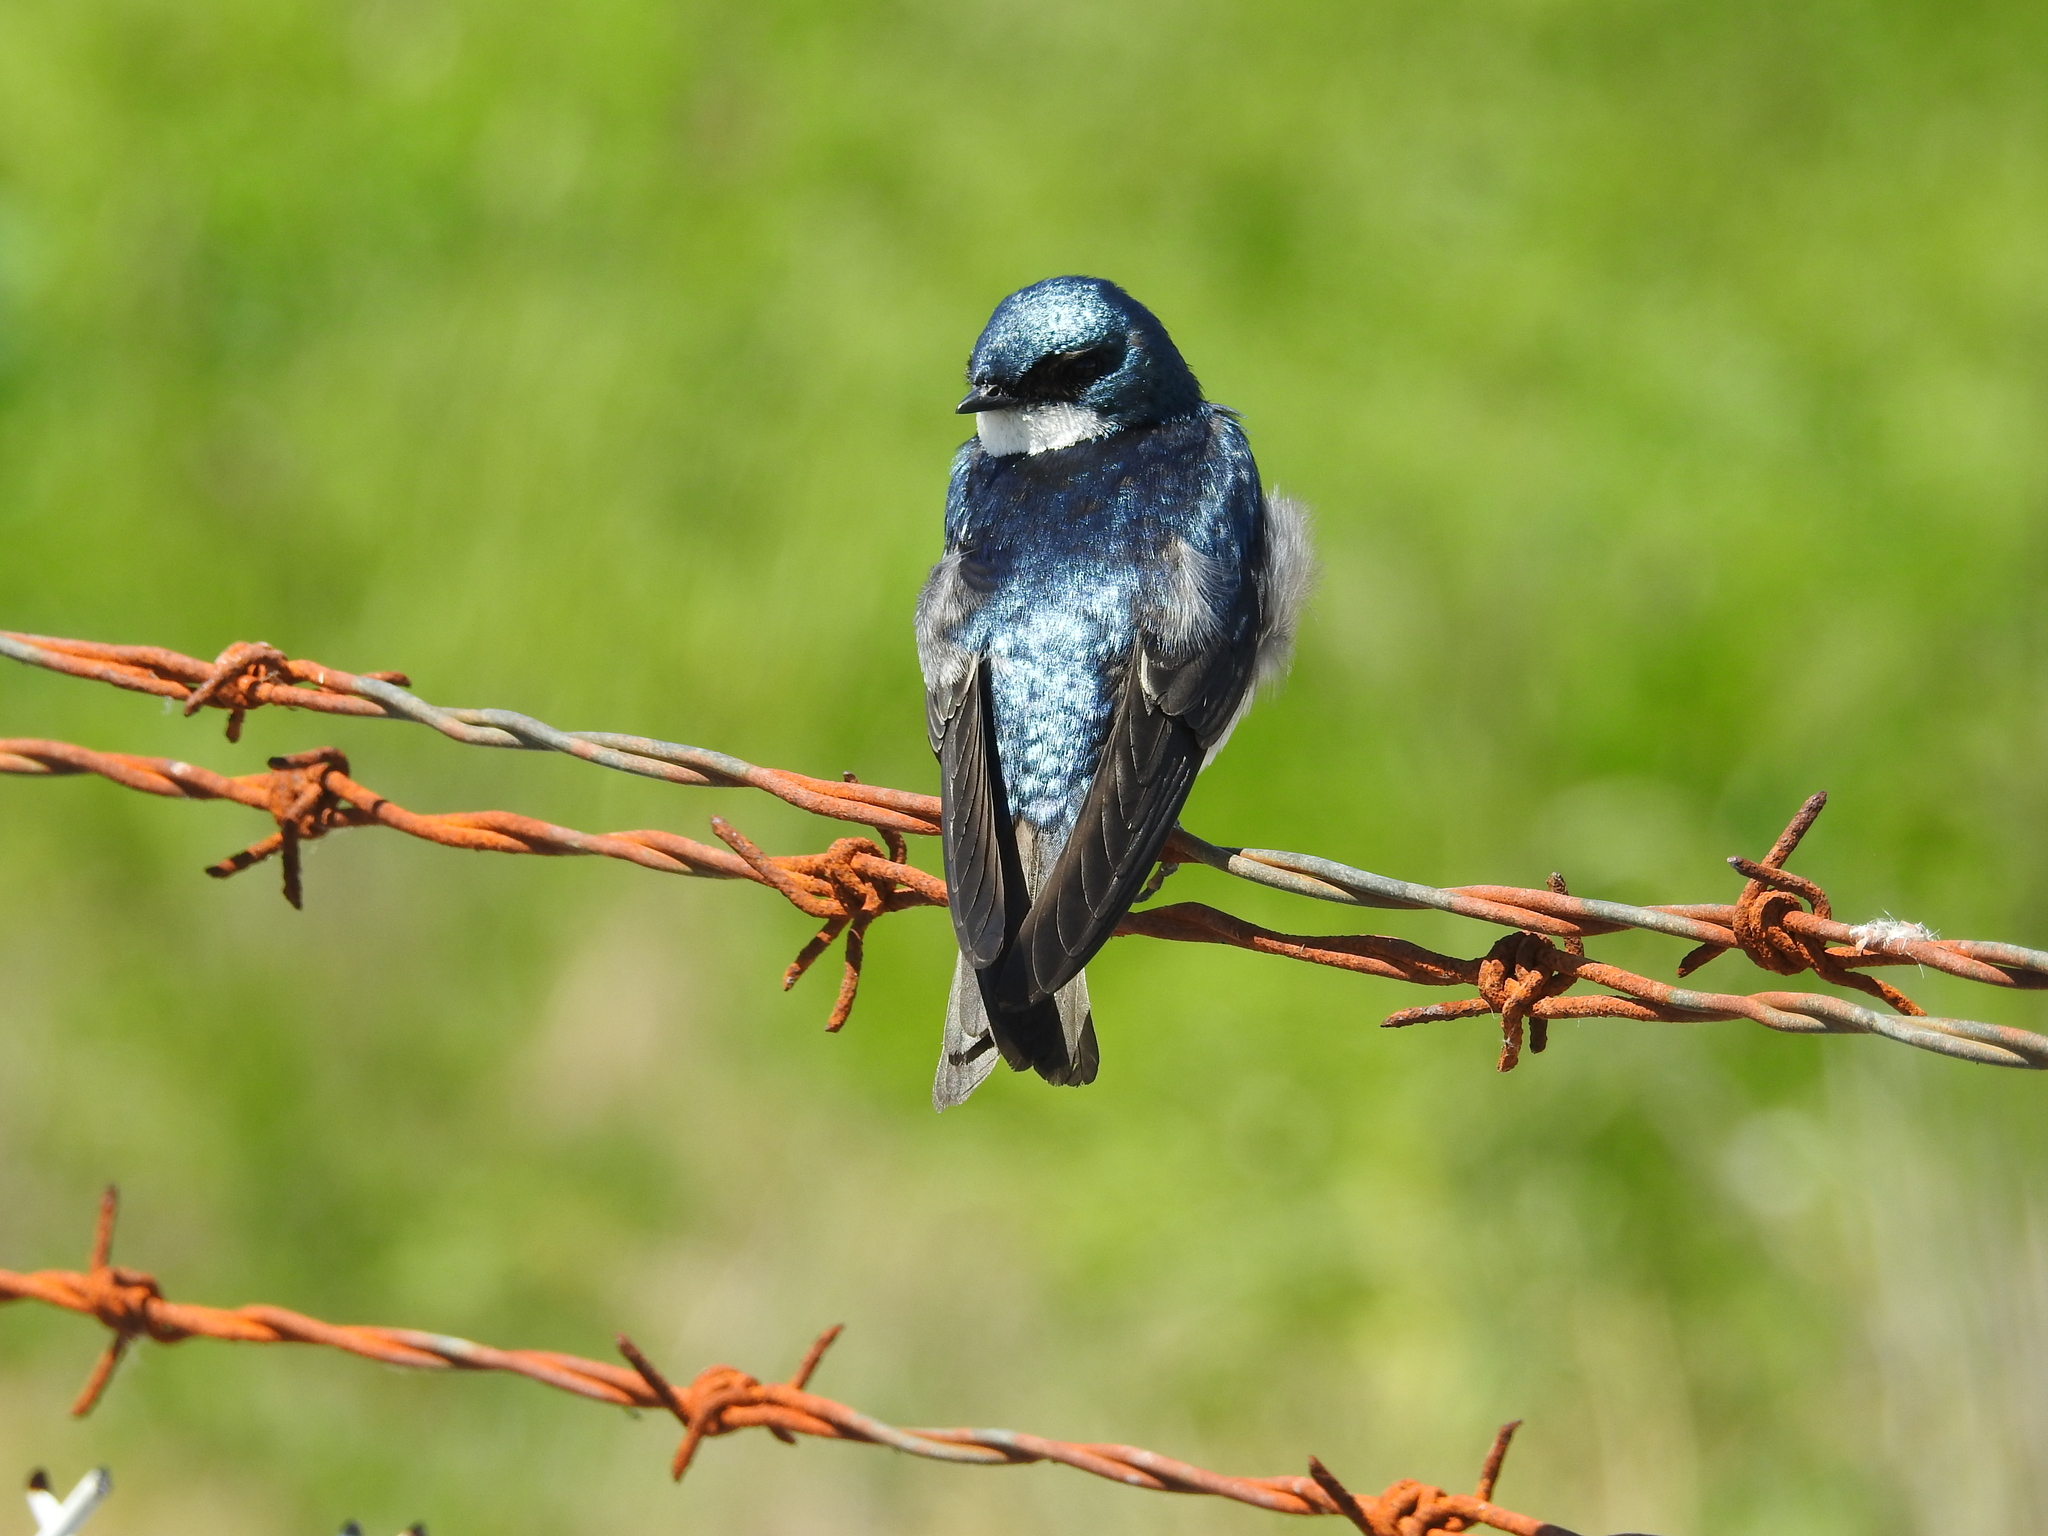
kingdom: Animalia
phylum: Chordata
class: Aves
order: Passeriformes
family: Hirundinidae
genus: Tachycineta
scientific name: Tachycineta bicolor
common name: Tree swallow
